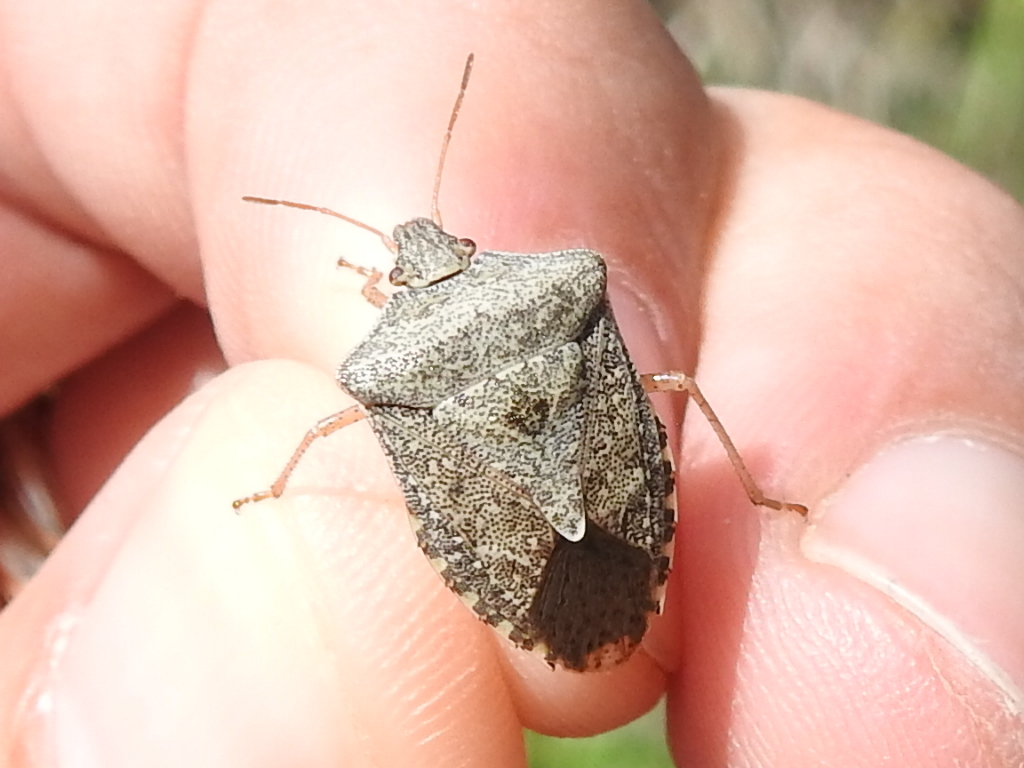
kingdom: Animalia
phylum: Arthropoda
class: Insecta
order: Hemiptera
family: Pentatomidae
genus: Euschistus
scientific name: Euschistus servus
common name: Brown stink bug
